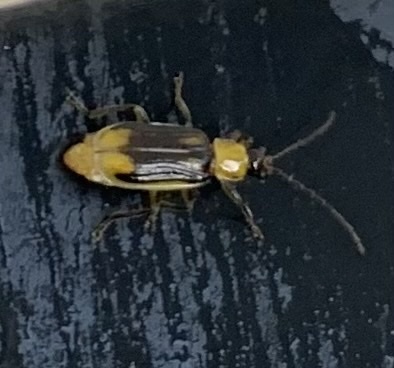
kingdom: Animalia
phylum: Arthropoda
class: Insecta
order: Coleoptera
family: Chrysomelidae
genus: Diabrotica
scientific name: Diabrotica virgifera
